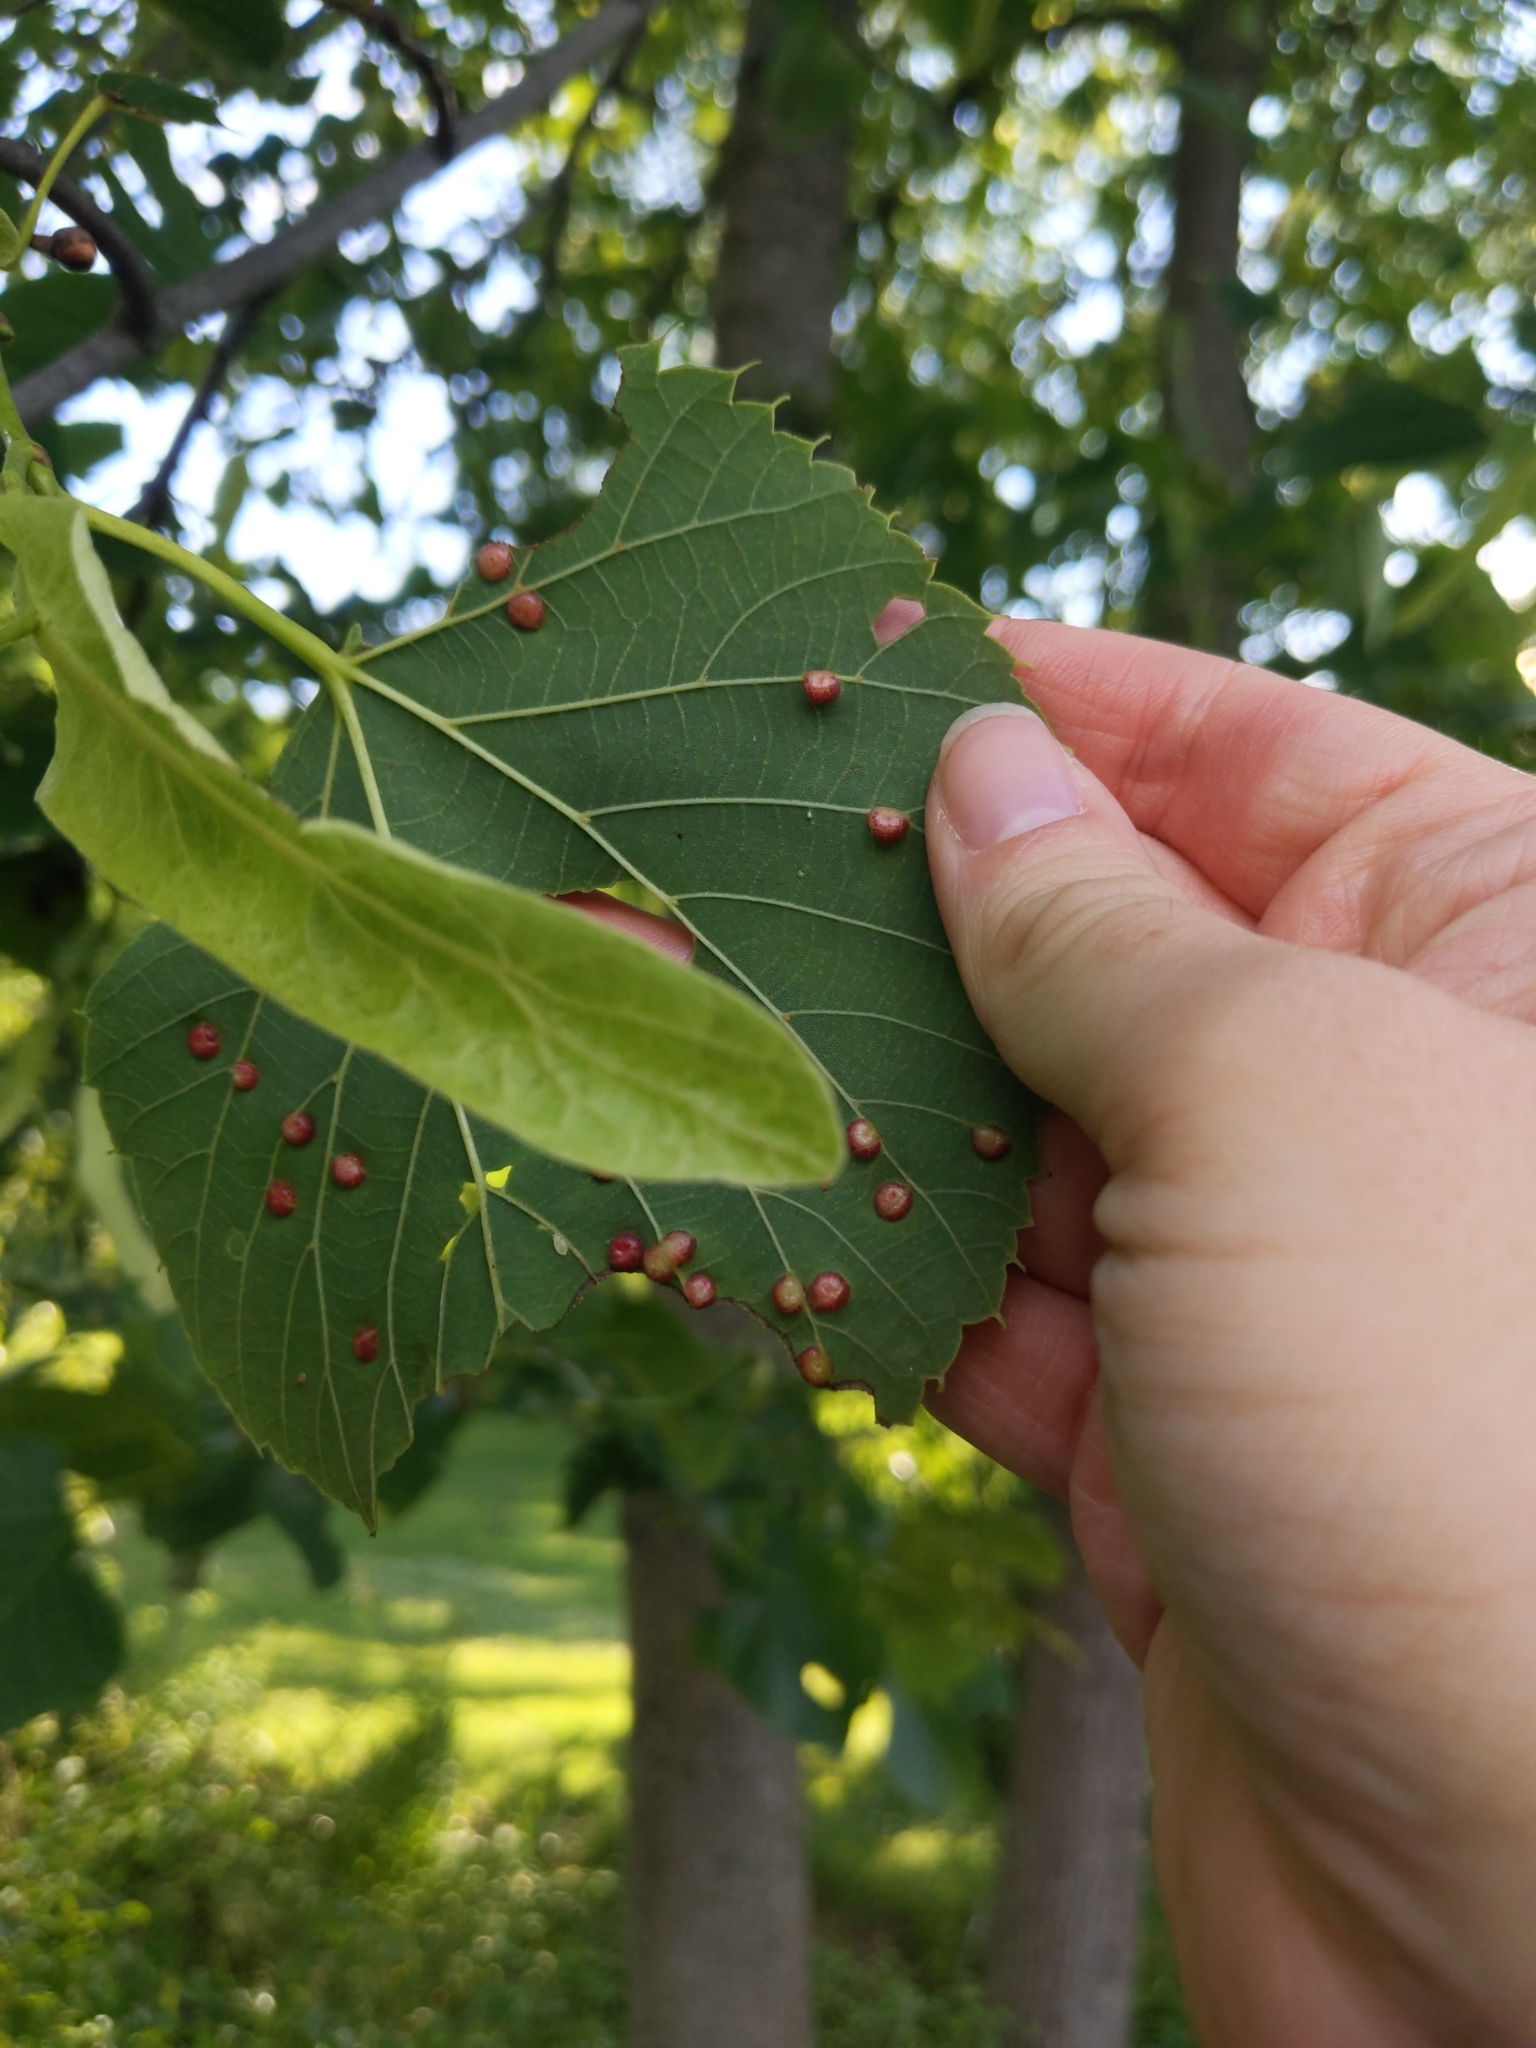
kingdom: Animalia
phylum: Arthropoda
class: Insecta
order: Diptera
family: Cecidomyiidae
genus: Contarinia
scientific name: Contarinia verrucicola
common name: Linden wart gall midge
